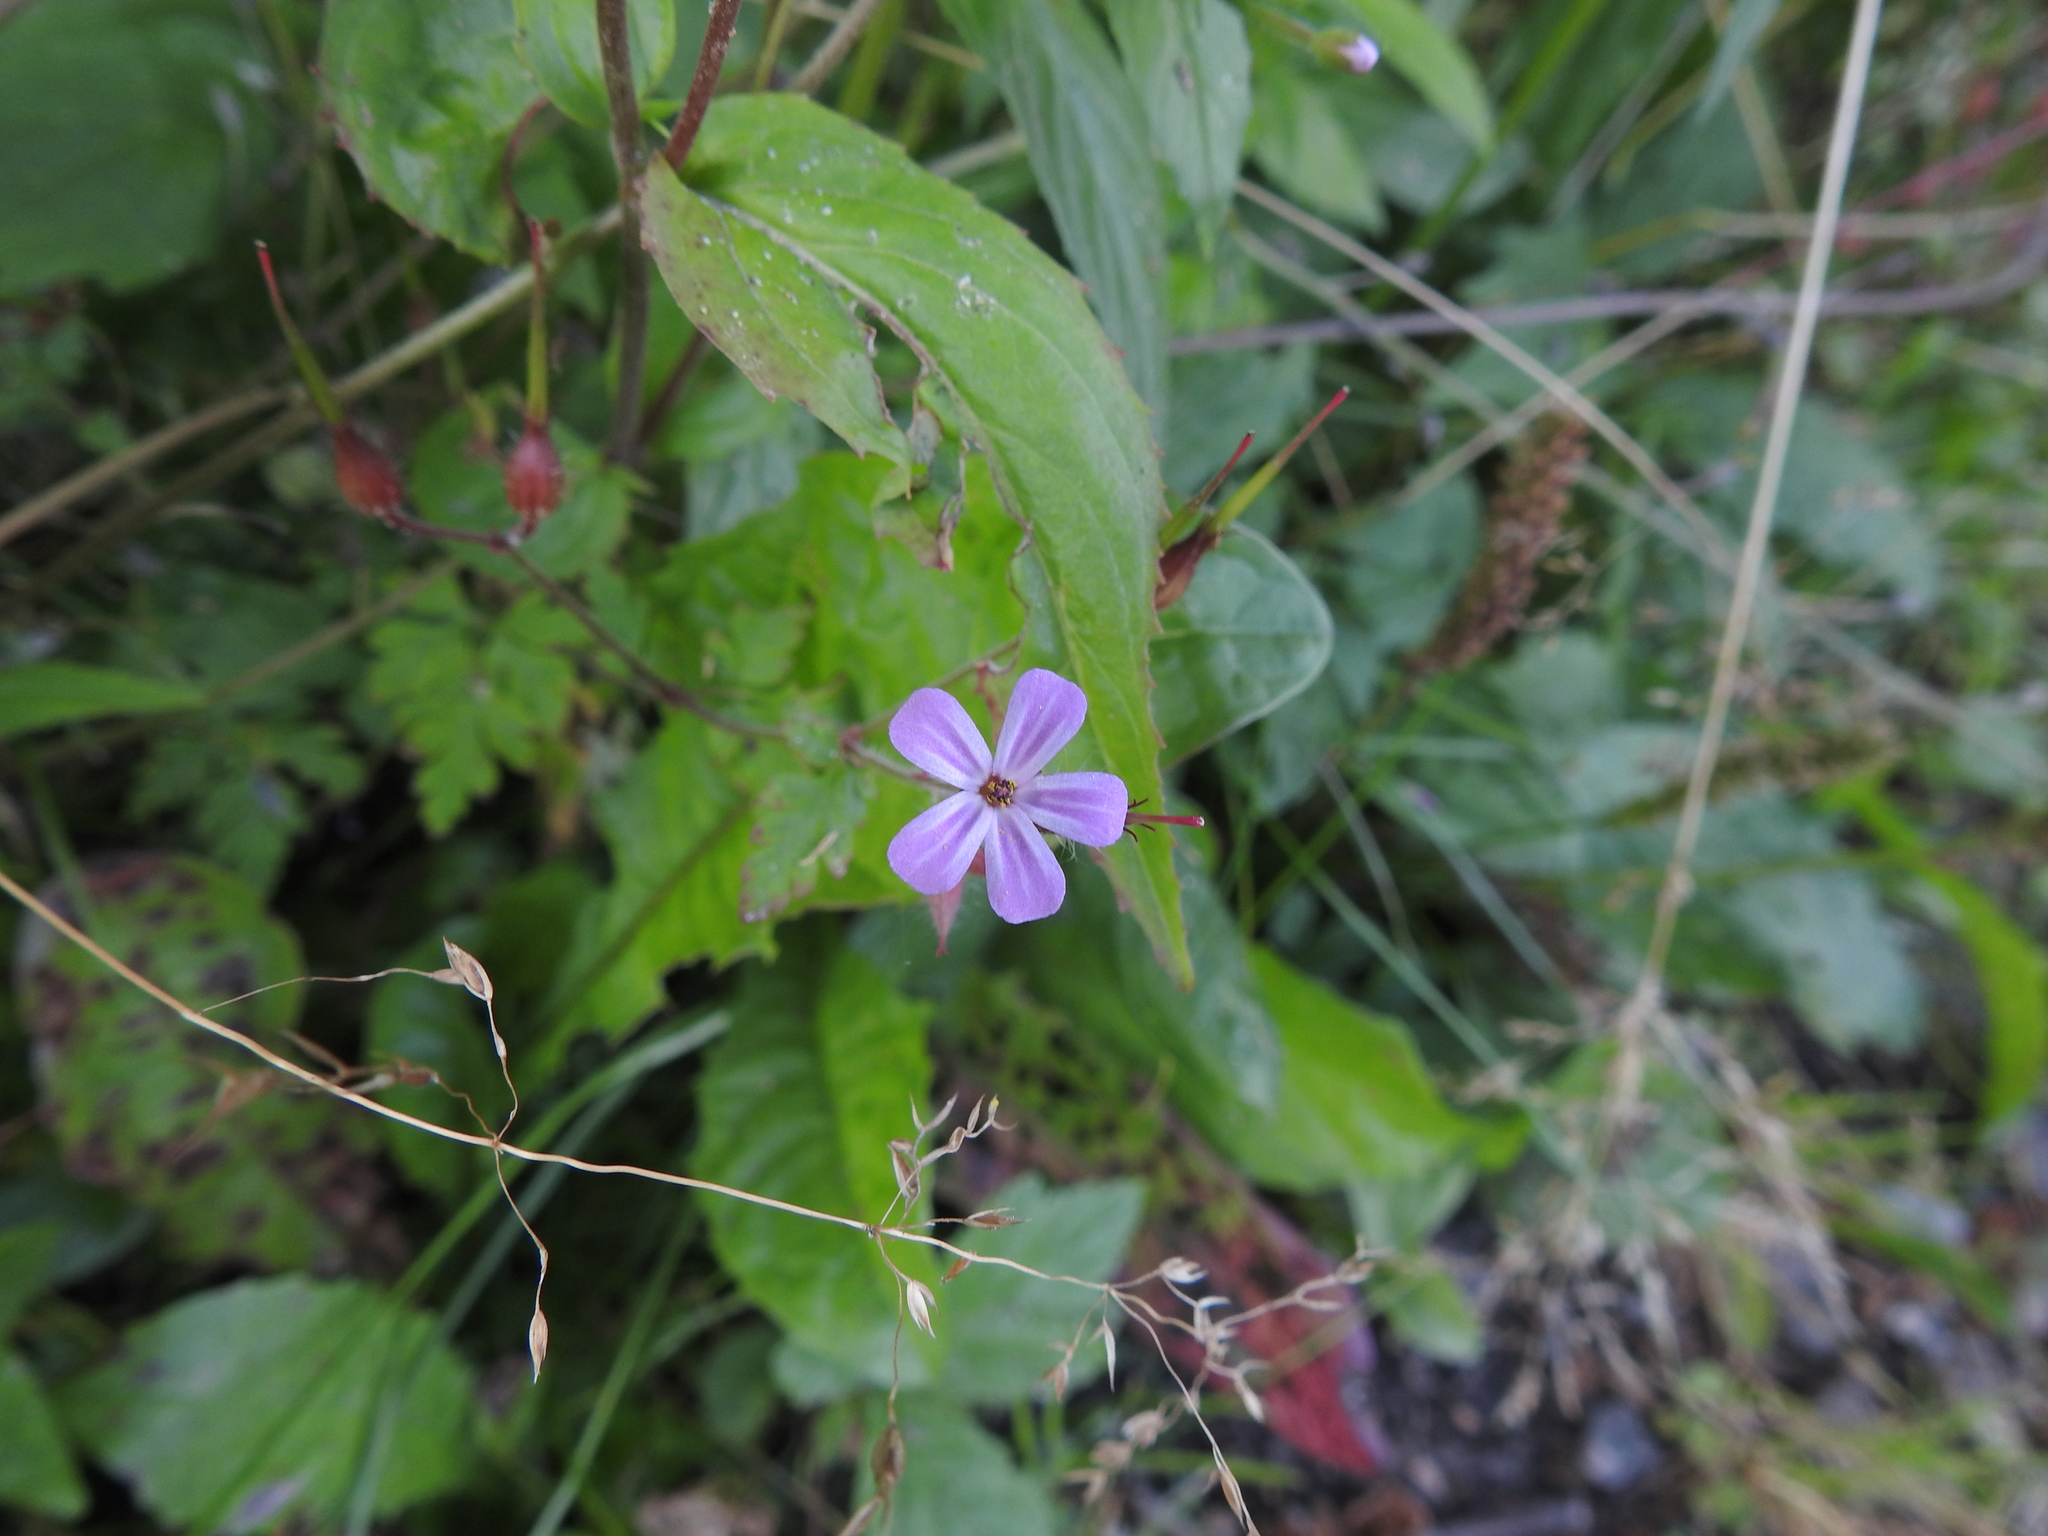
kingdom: Plantae
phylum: Tracheophyta
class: Magnoliopsida
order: Geraniales
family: Geraniaceae
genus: Geranium
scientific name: Geranium robertianum
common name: Herb-robert
